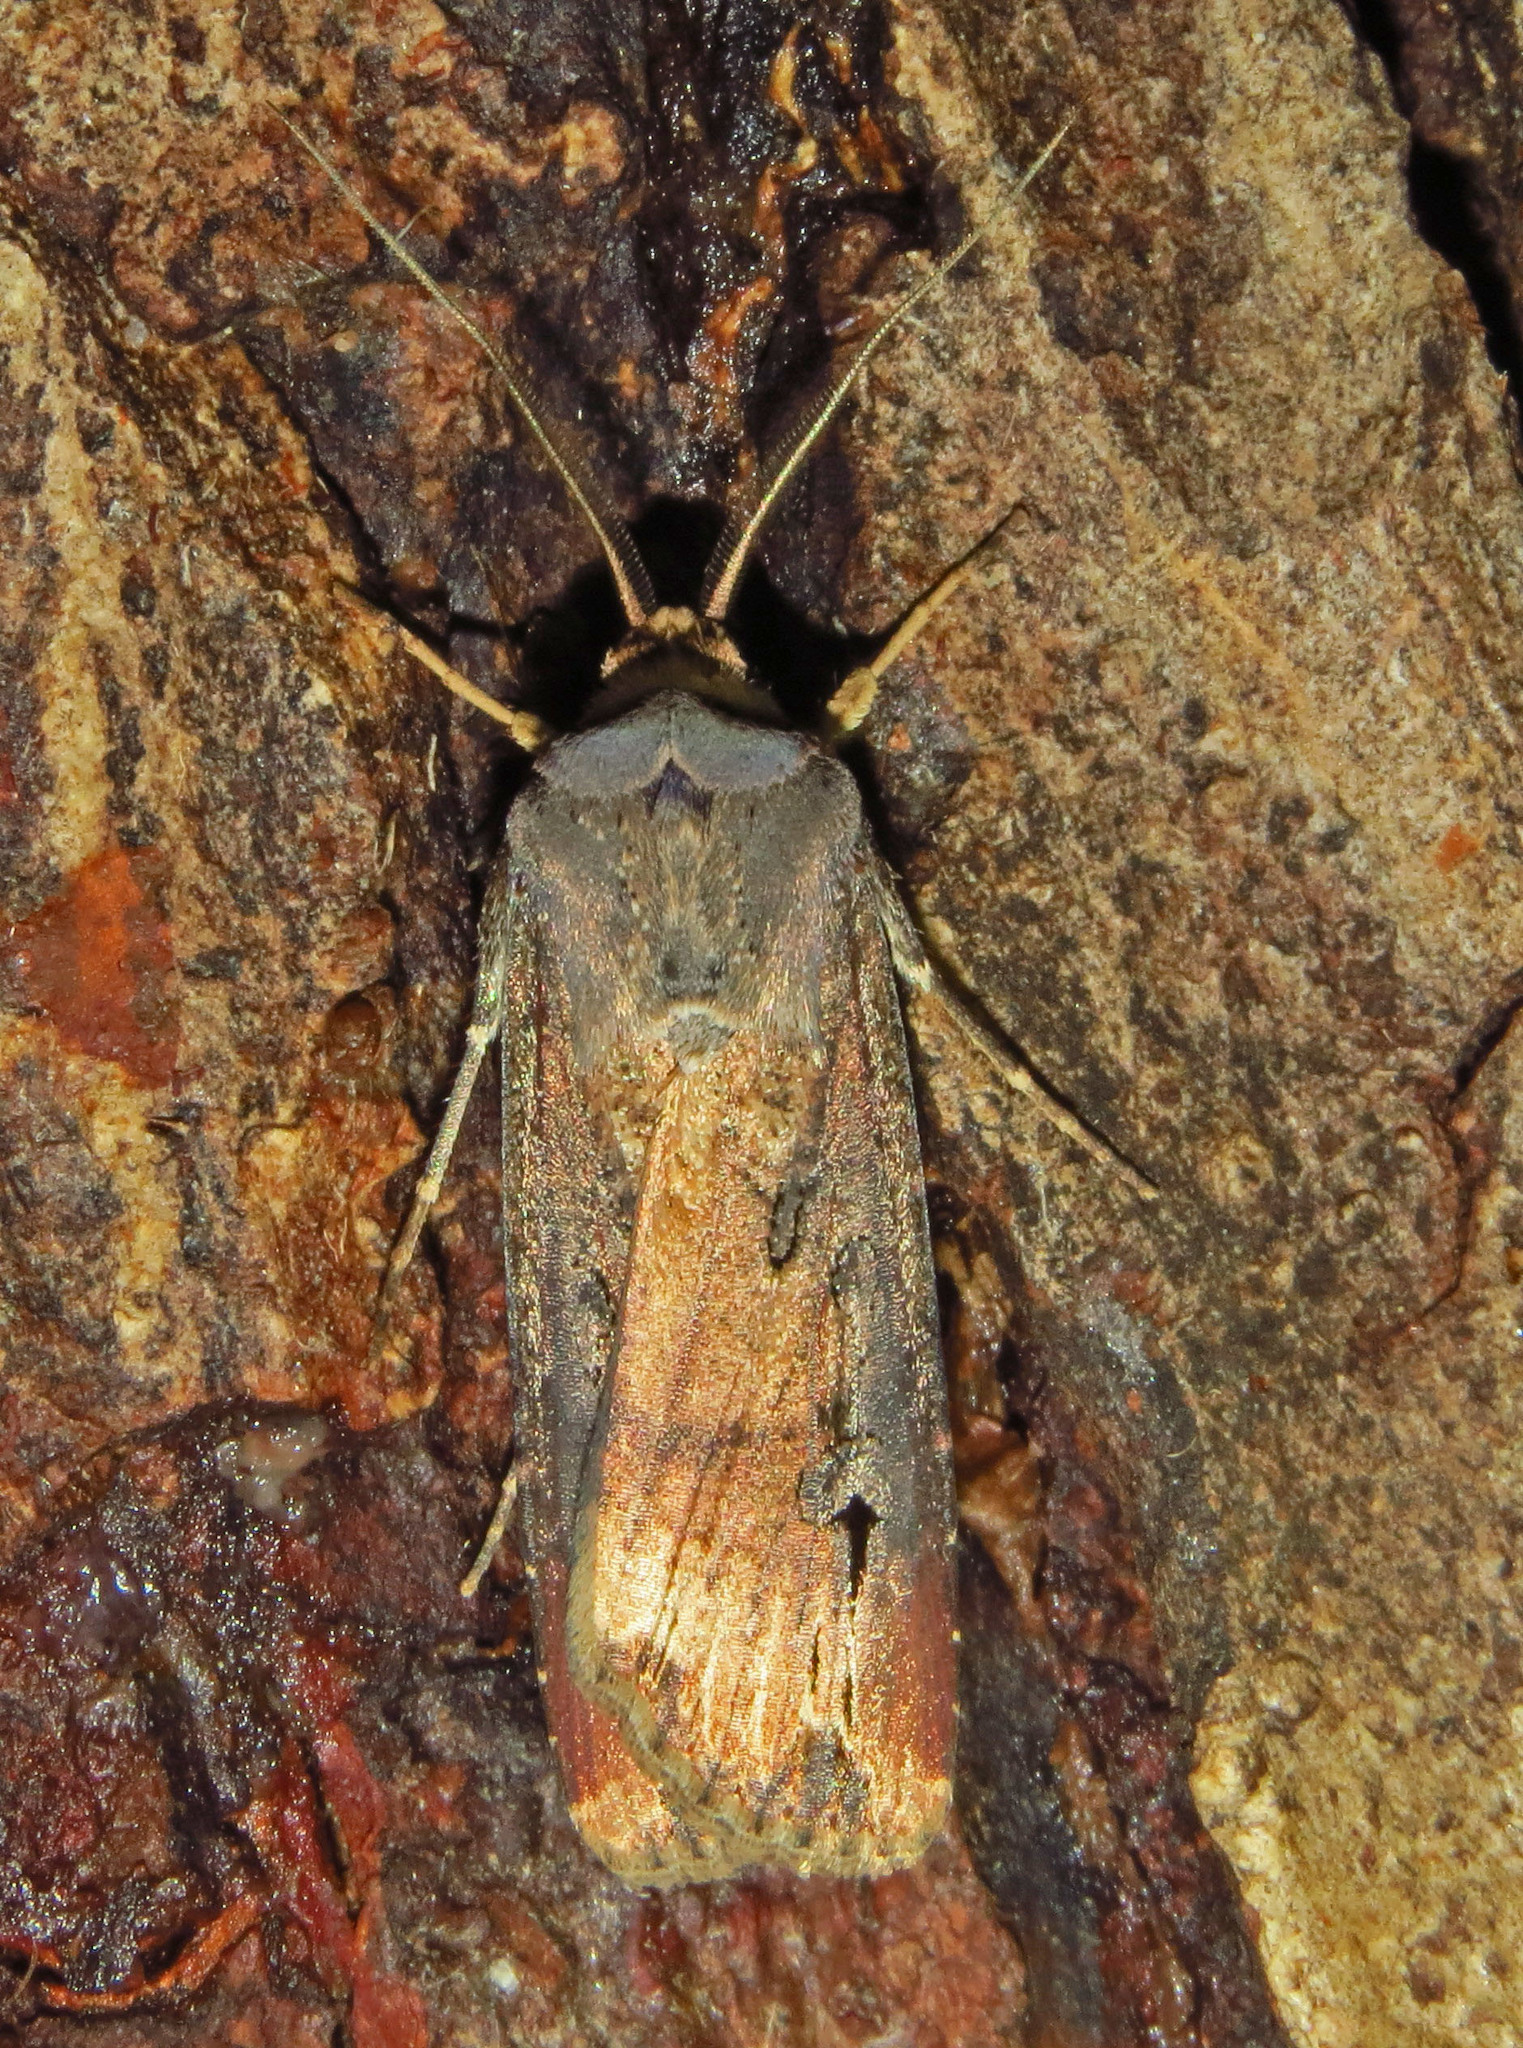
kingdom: Animalia
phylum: Arthropoda
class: Insecta
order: Lepidoptera
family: Noctuidae
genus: Agrotis
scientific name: Agrotis ipsilon
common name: Dark sword-grass
